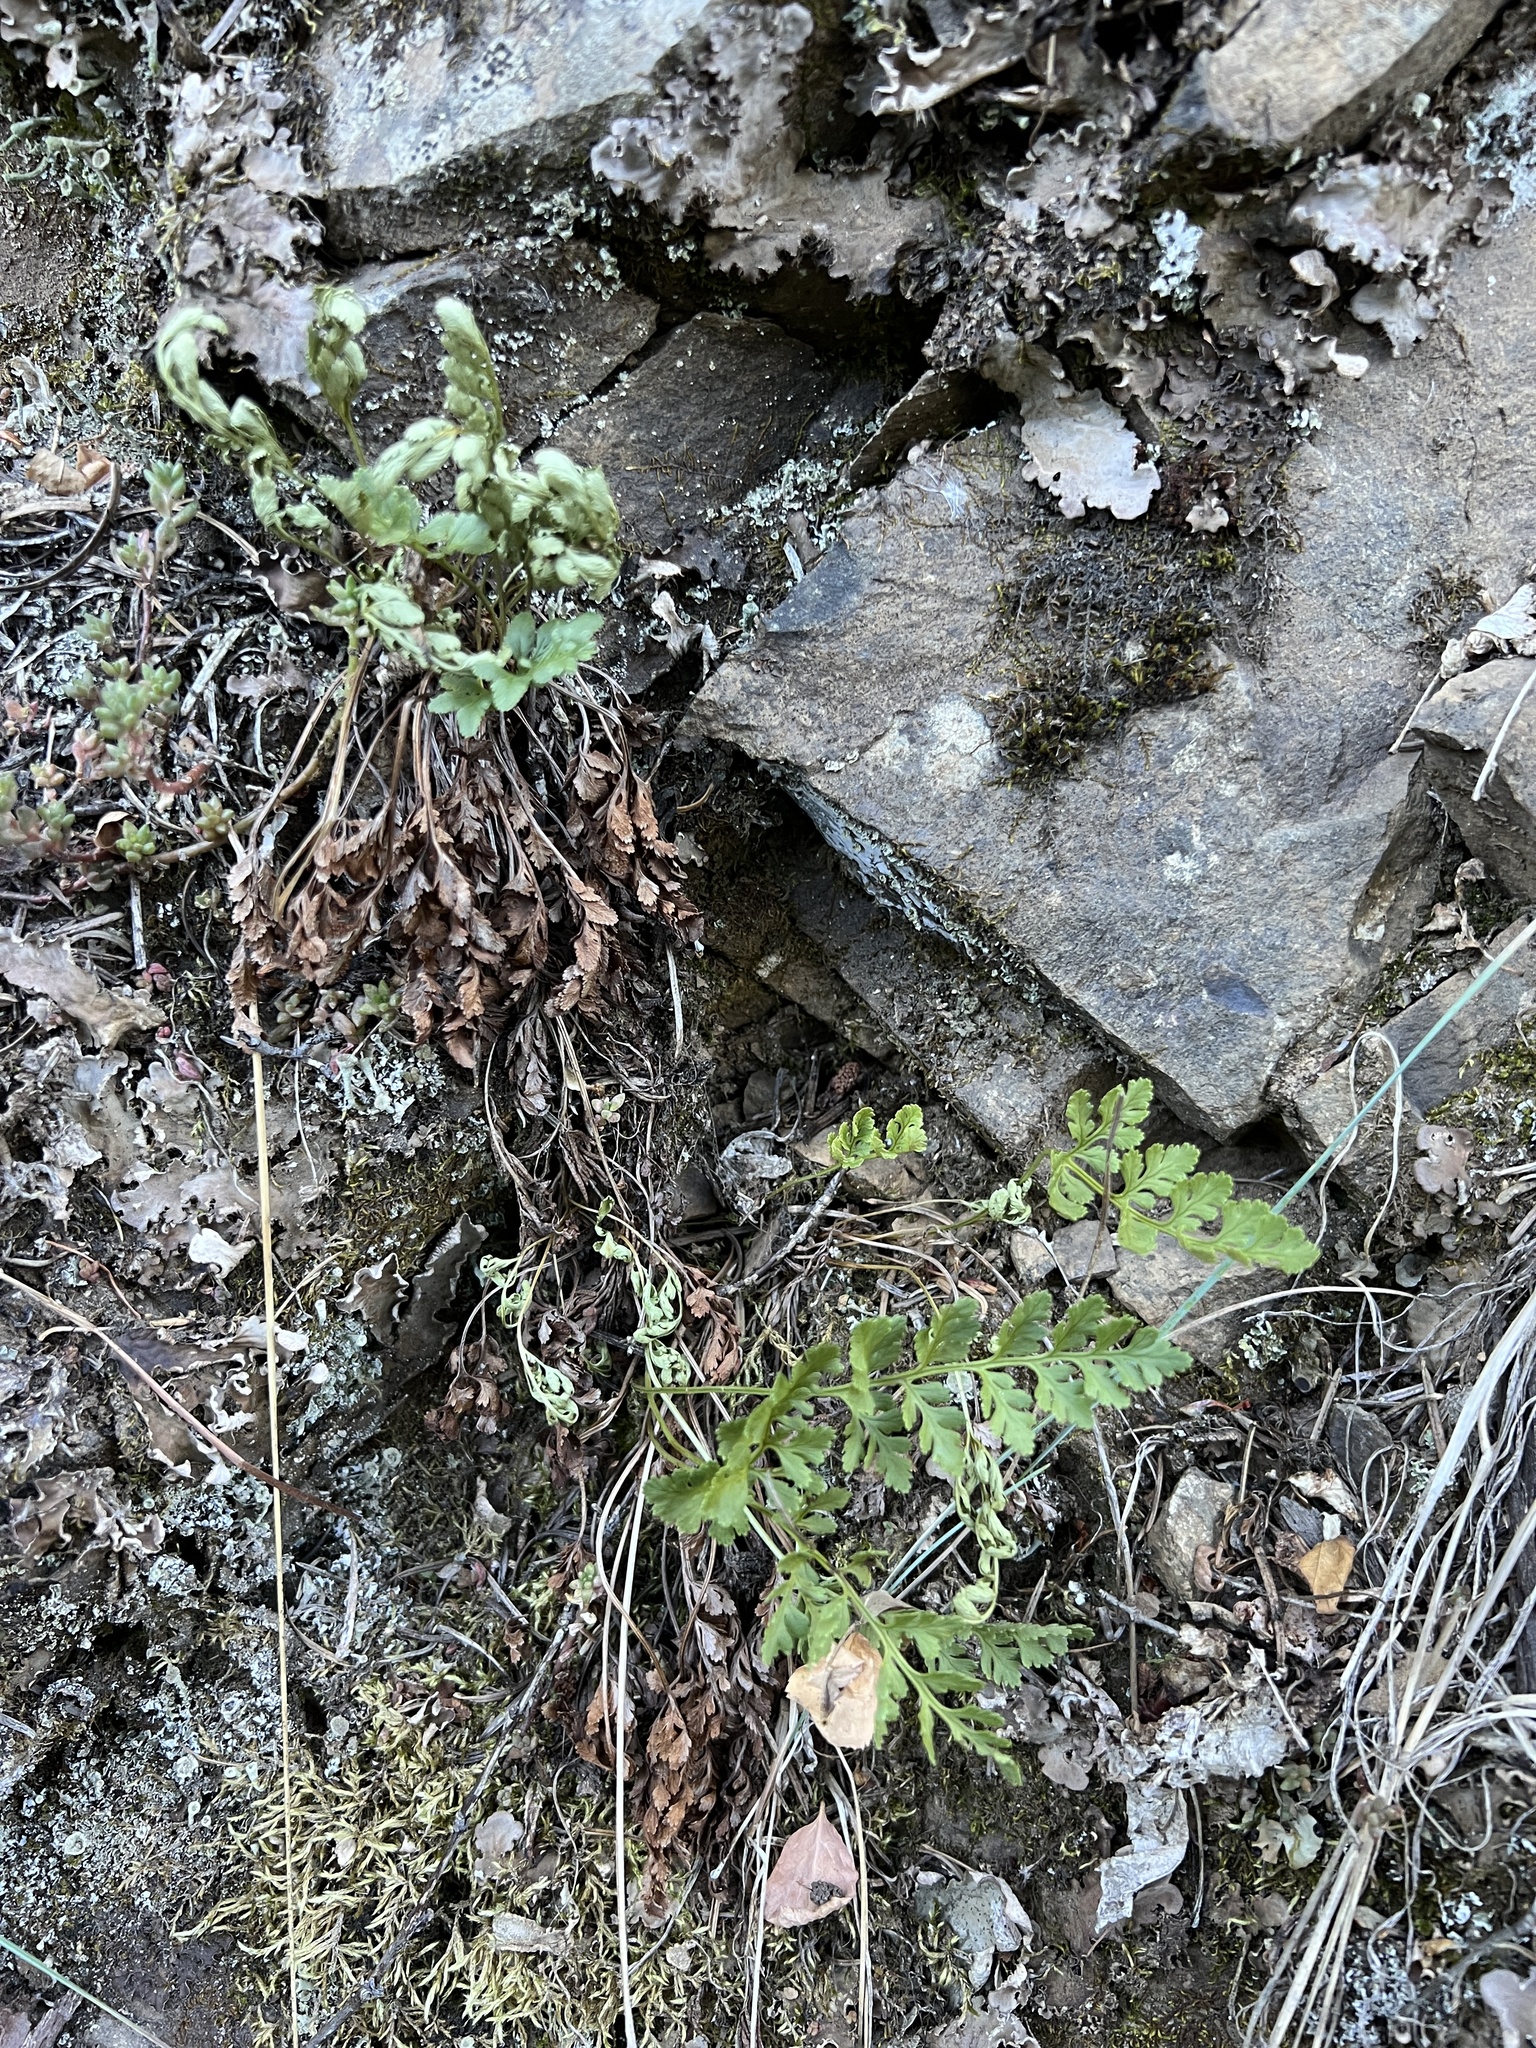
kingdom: Plantae
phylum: Tracheophyta
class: Polypodiopsida
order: Polypodiales
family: Pteridaceae
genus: Cryptogramma
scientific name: Cryptogramma acrostichoides
